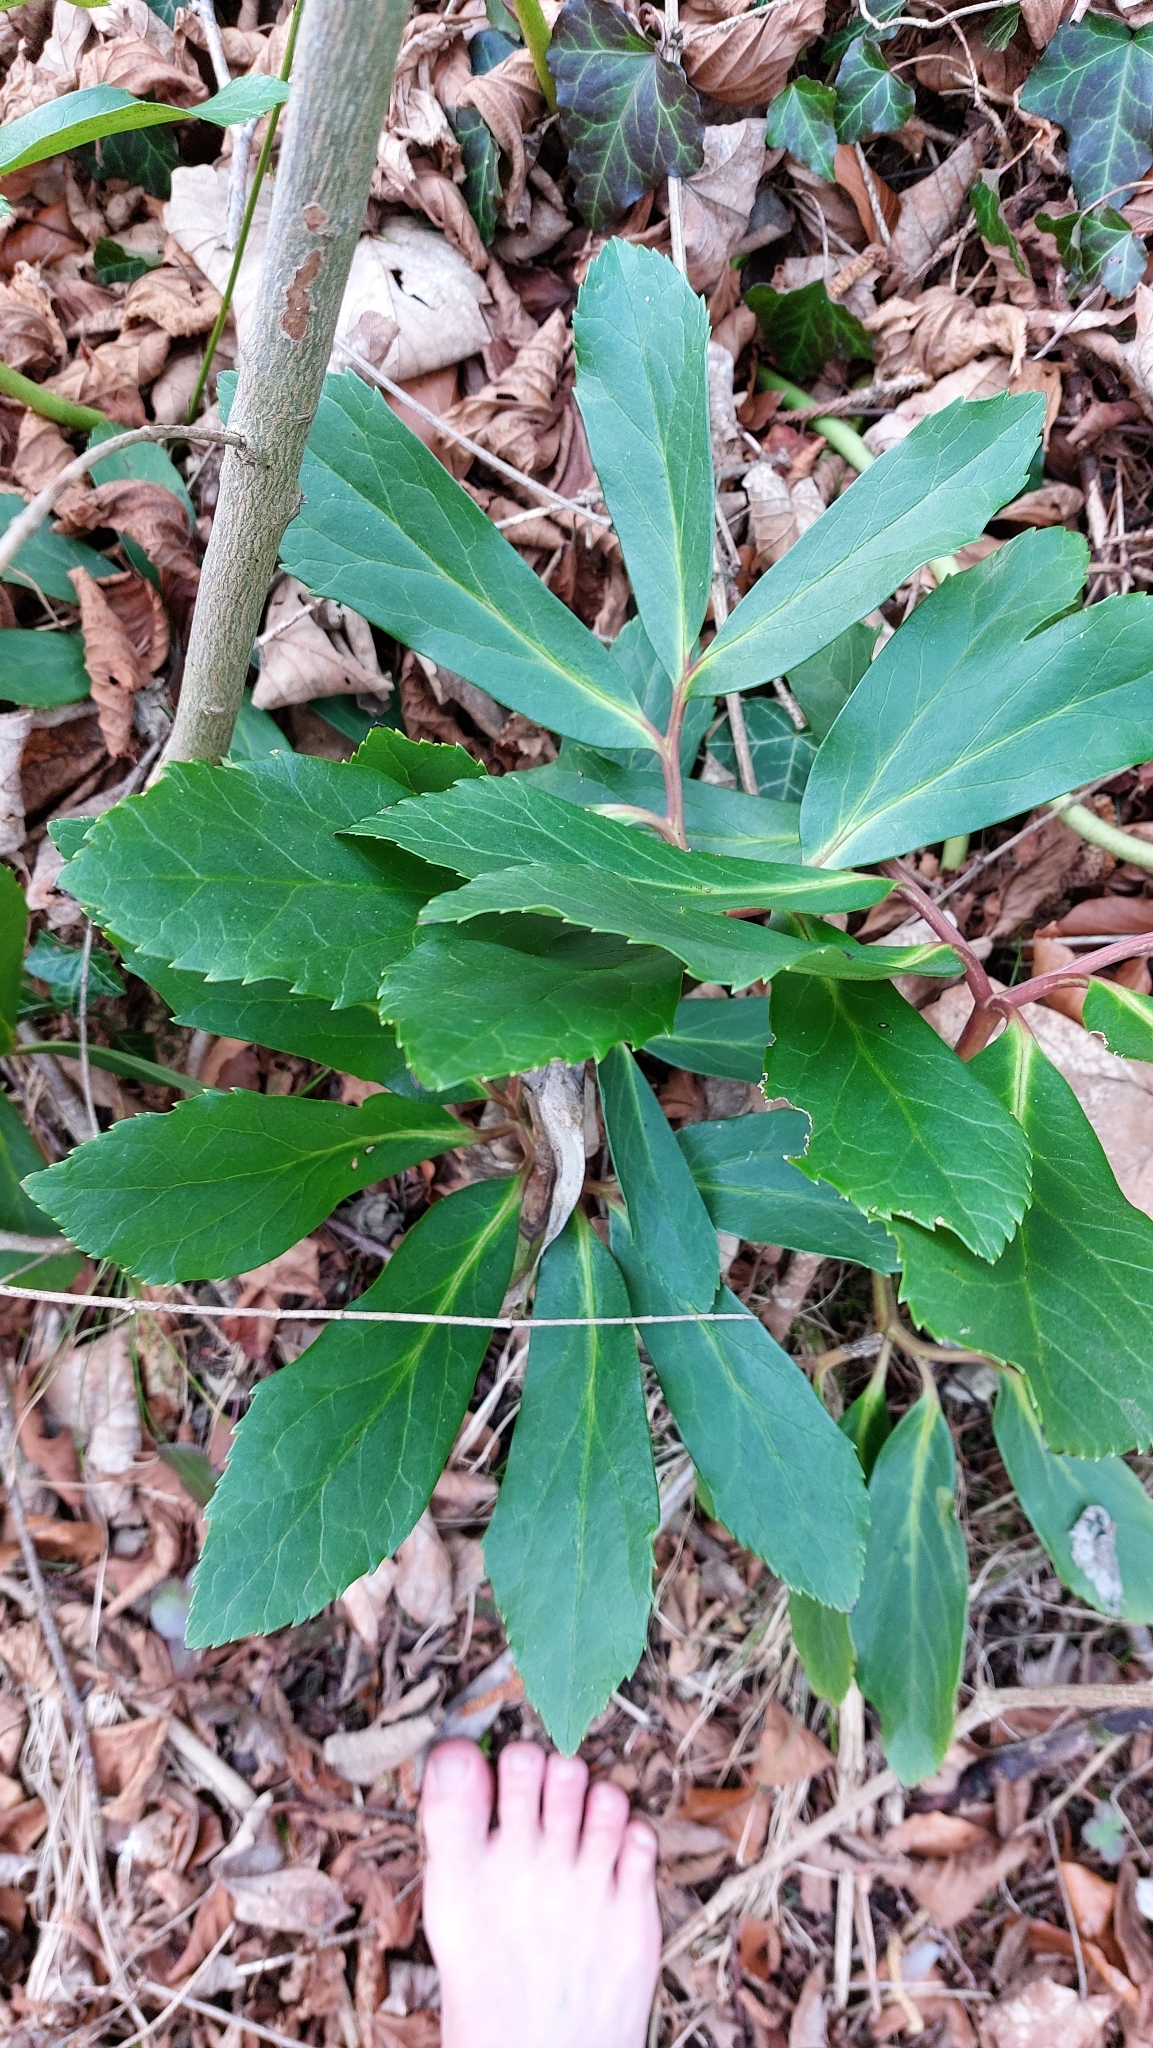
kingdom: Plantae
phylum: Tracheophyta
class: Magnoliopsida
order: Ranunculales
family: Ranunculaceae
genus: Helleborus
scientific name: Helleborus niger
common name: Black hellebore
